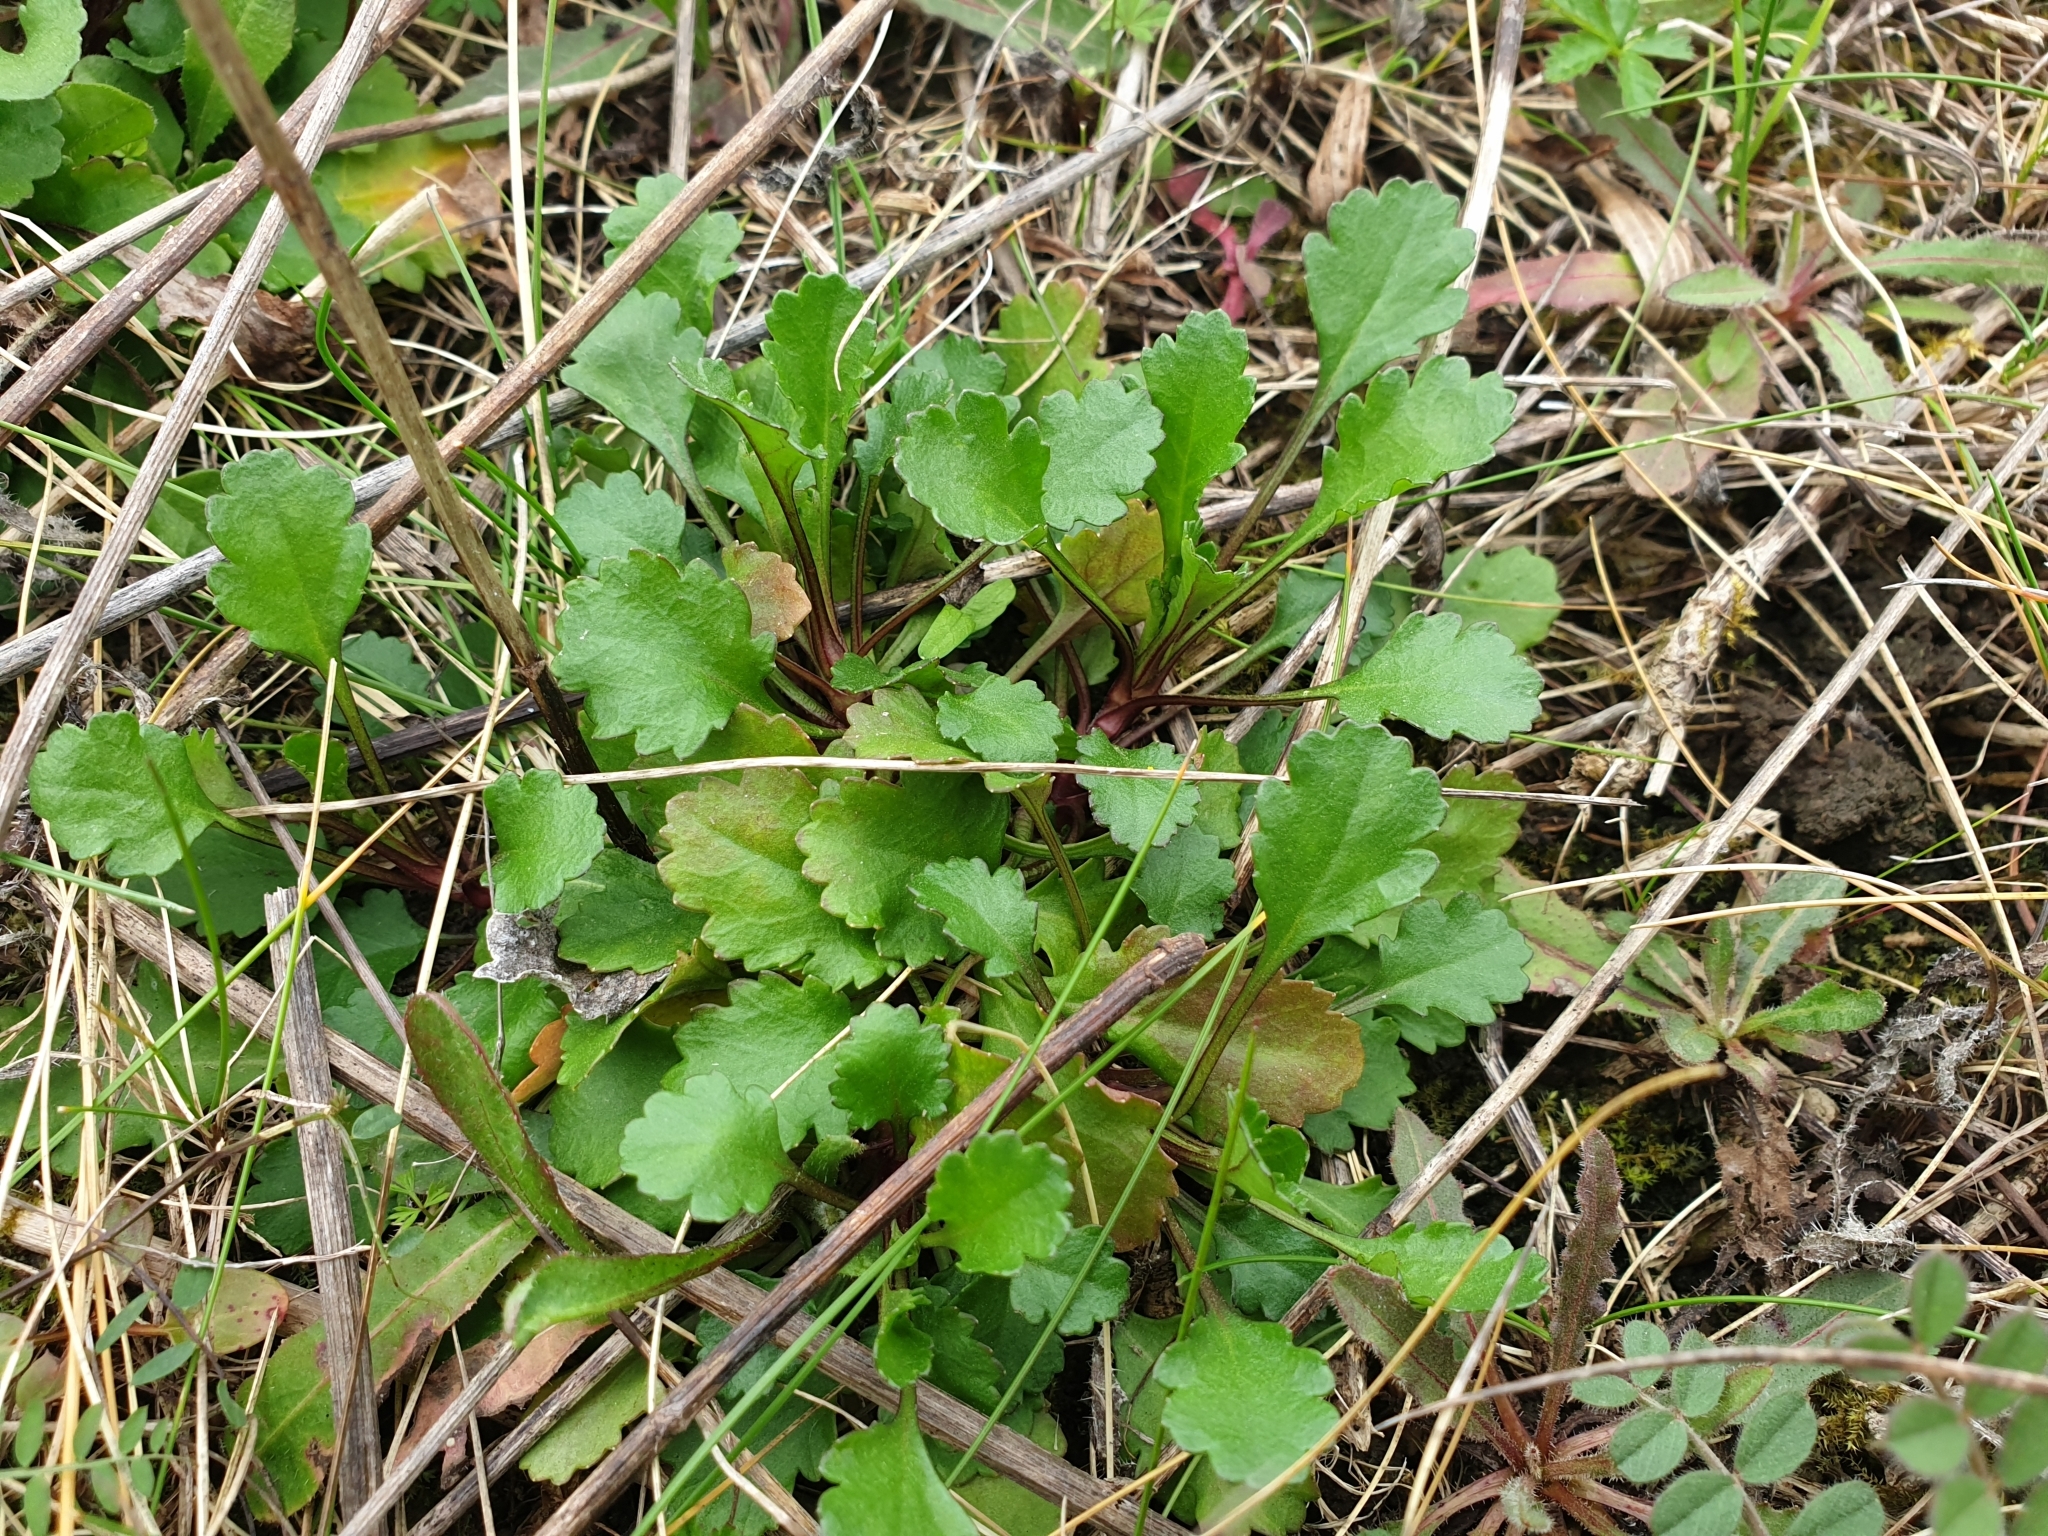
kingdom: Plantae
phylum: Tracheophyta
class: Magnoliopsida
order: Asterales
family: Asteraceae
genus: Leucanthemum
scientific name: Leucanthemum vulgare
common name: Oxeye daisy
